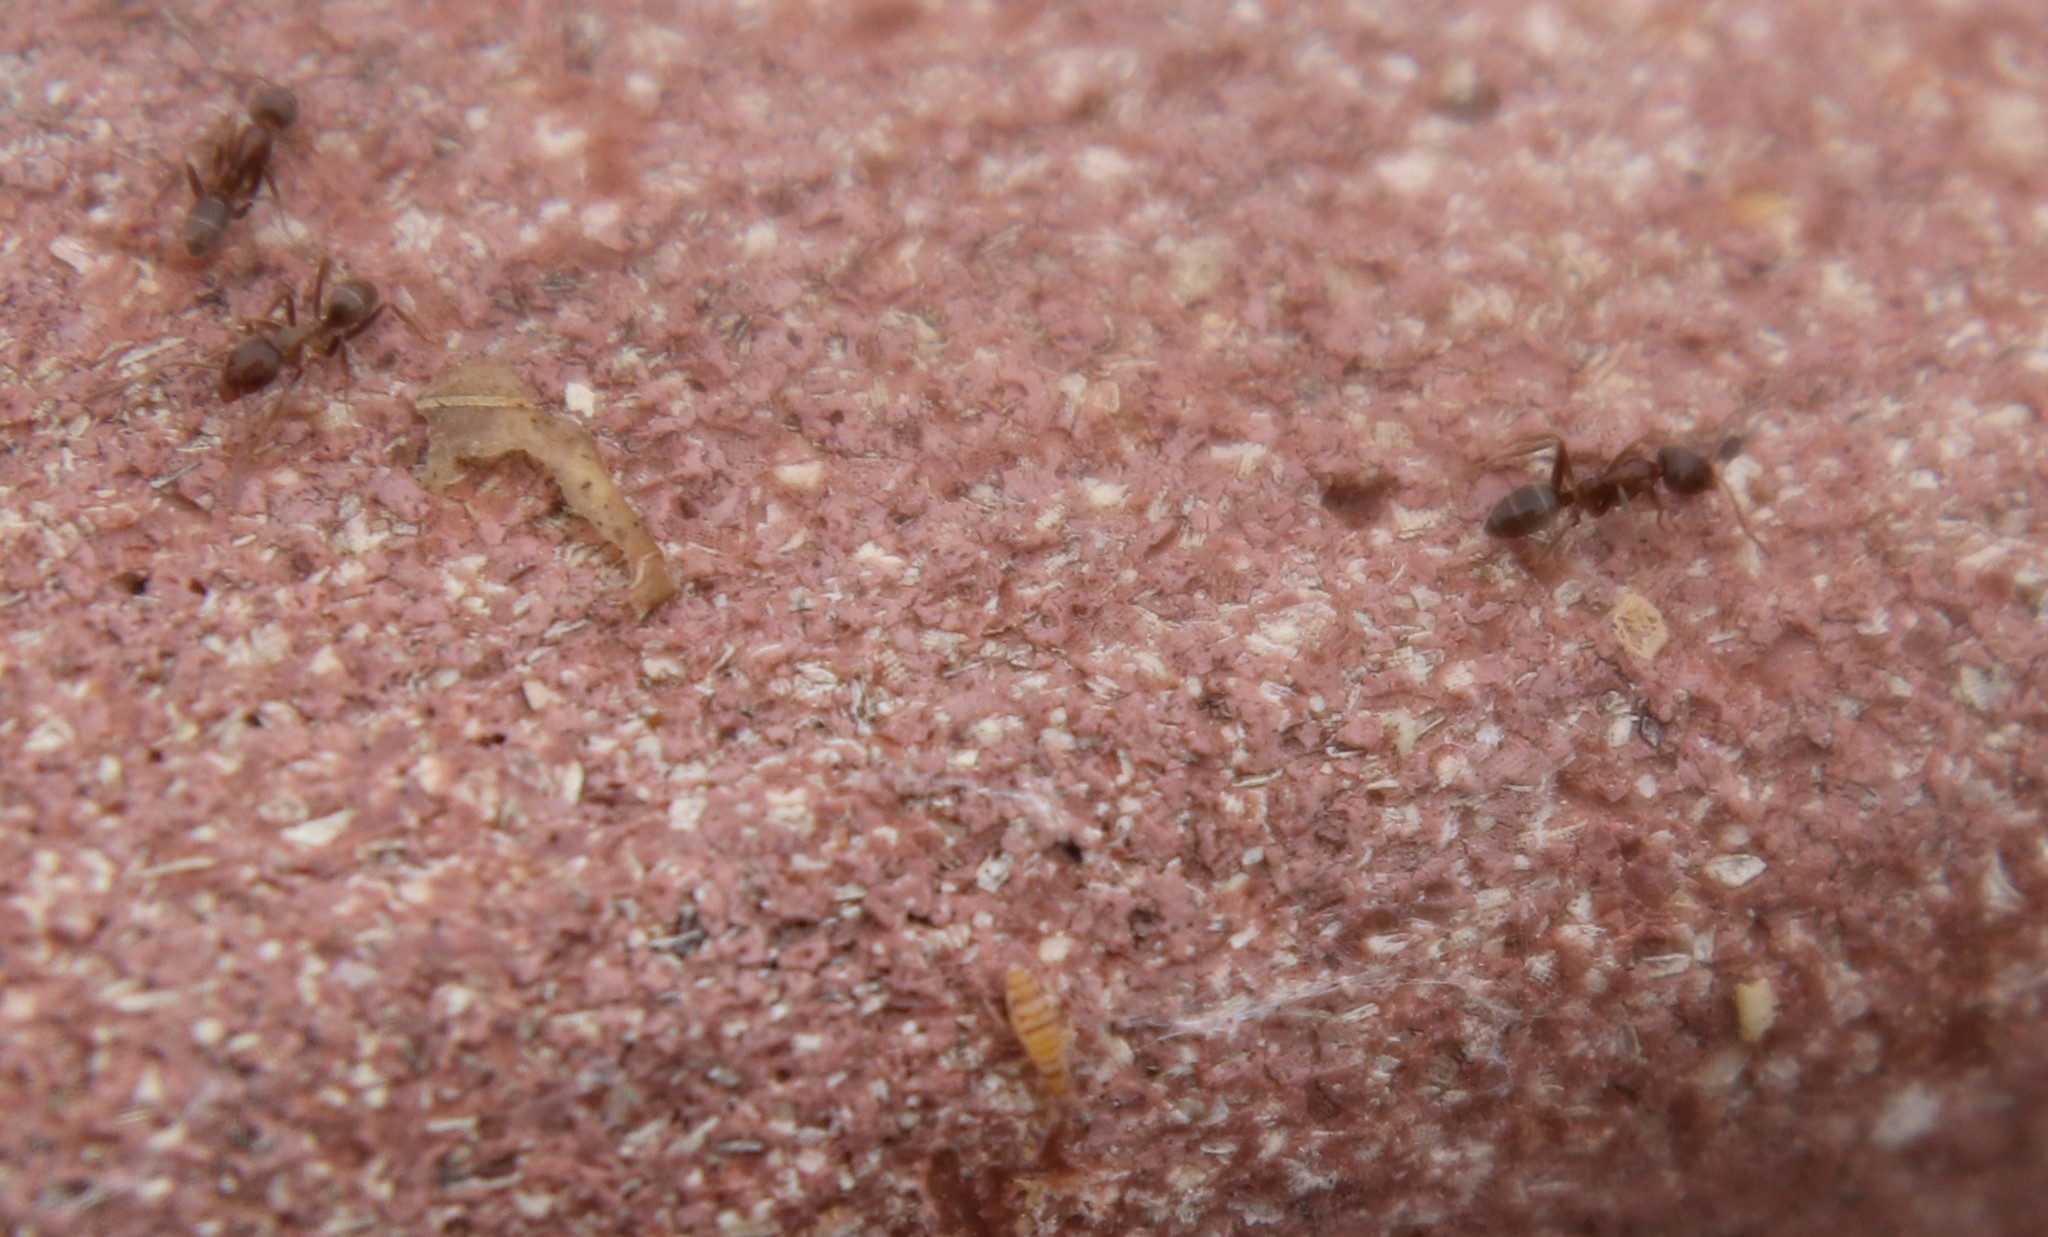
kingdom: Animalia
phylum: Arthropoda
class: Insecta
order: Hymenoptera
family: Formicidae
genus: Linepithema
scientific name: Linepithema humile
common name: Argentine ant
